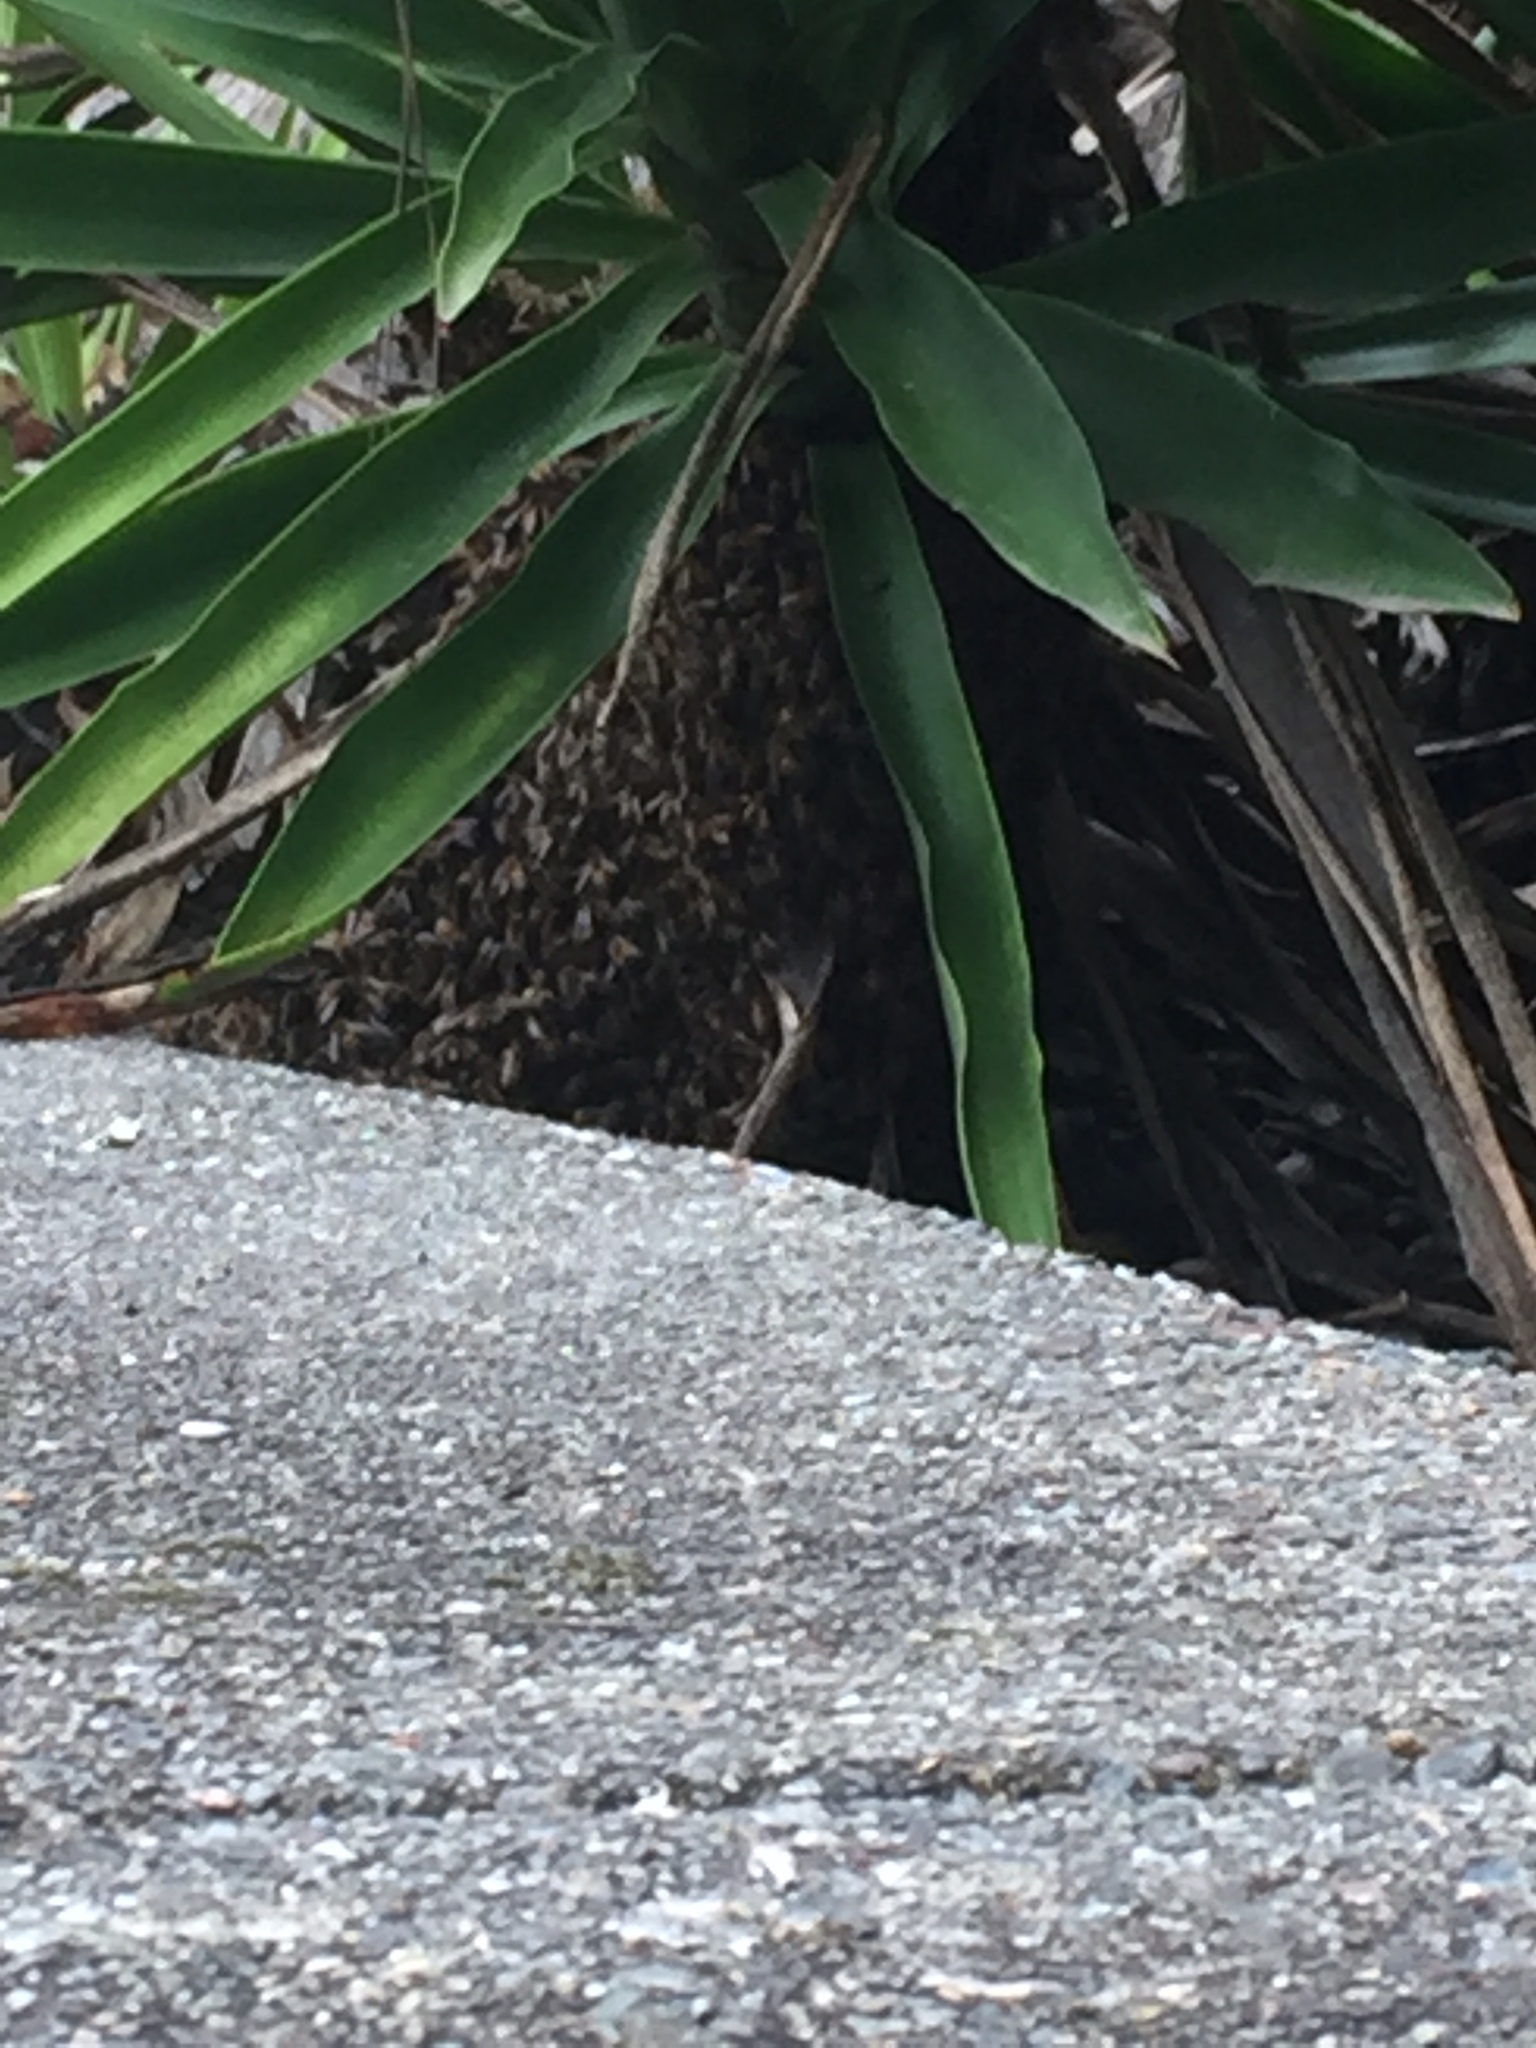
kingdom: Animalia
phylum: Arthropoda
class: Insecta
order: Hymenoptera
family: Apidae
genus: Apis
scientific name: Apis mellifera
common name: Honey bee
